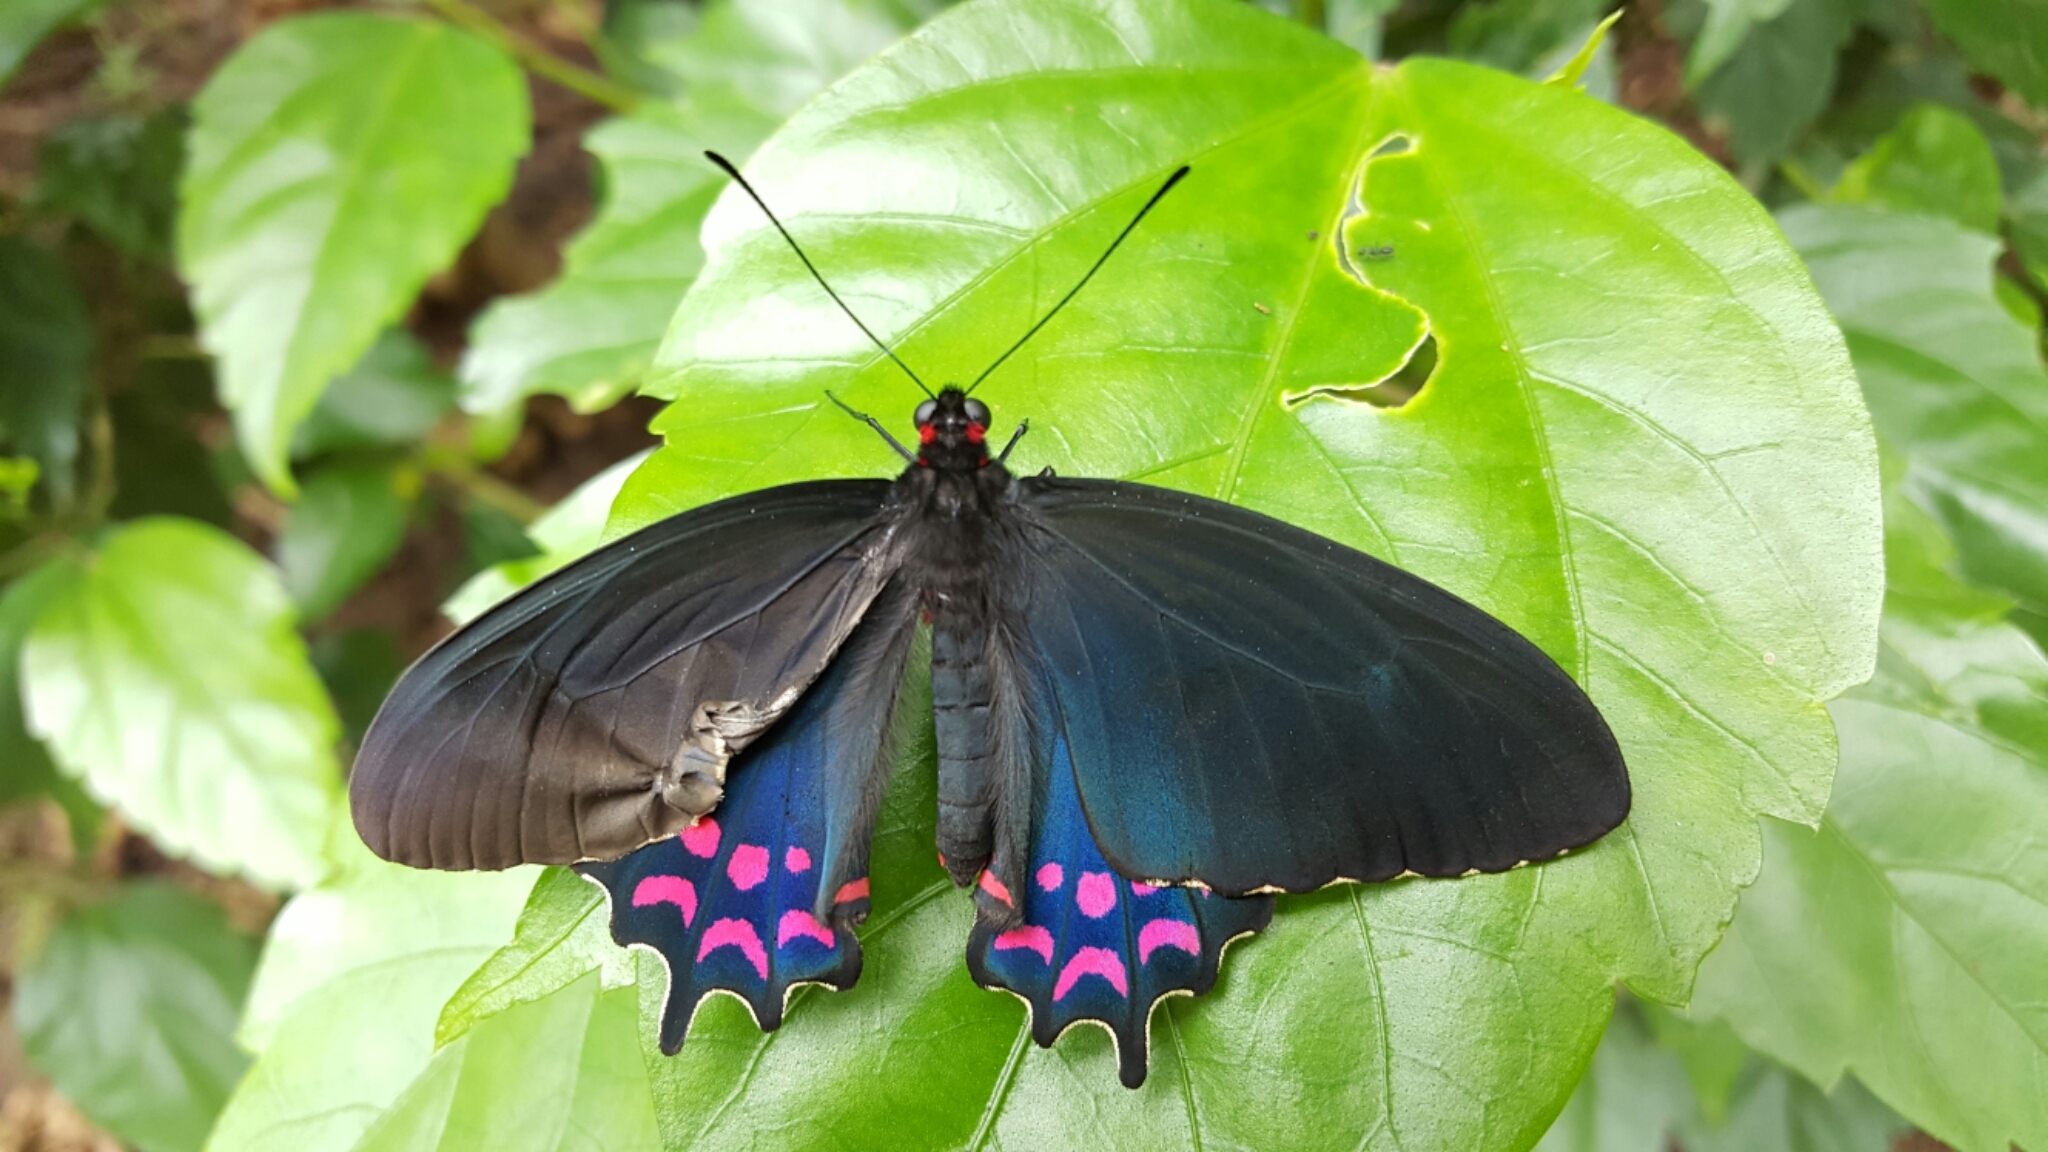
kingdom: Animalia
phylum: Arthropoda
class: Insecta
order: Lepidoptera
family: Papilionidae
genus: Parides
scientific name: Parides photinus
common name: Pink-spotted cattleheart
